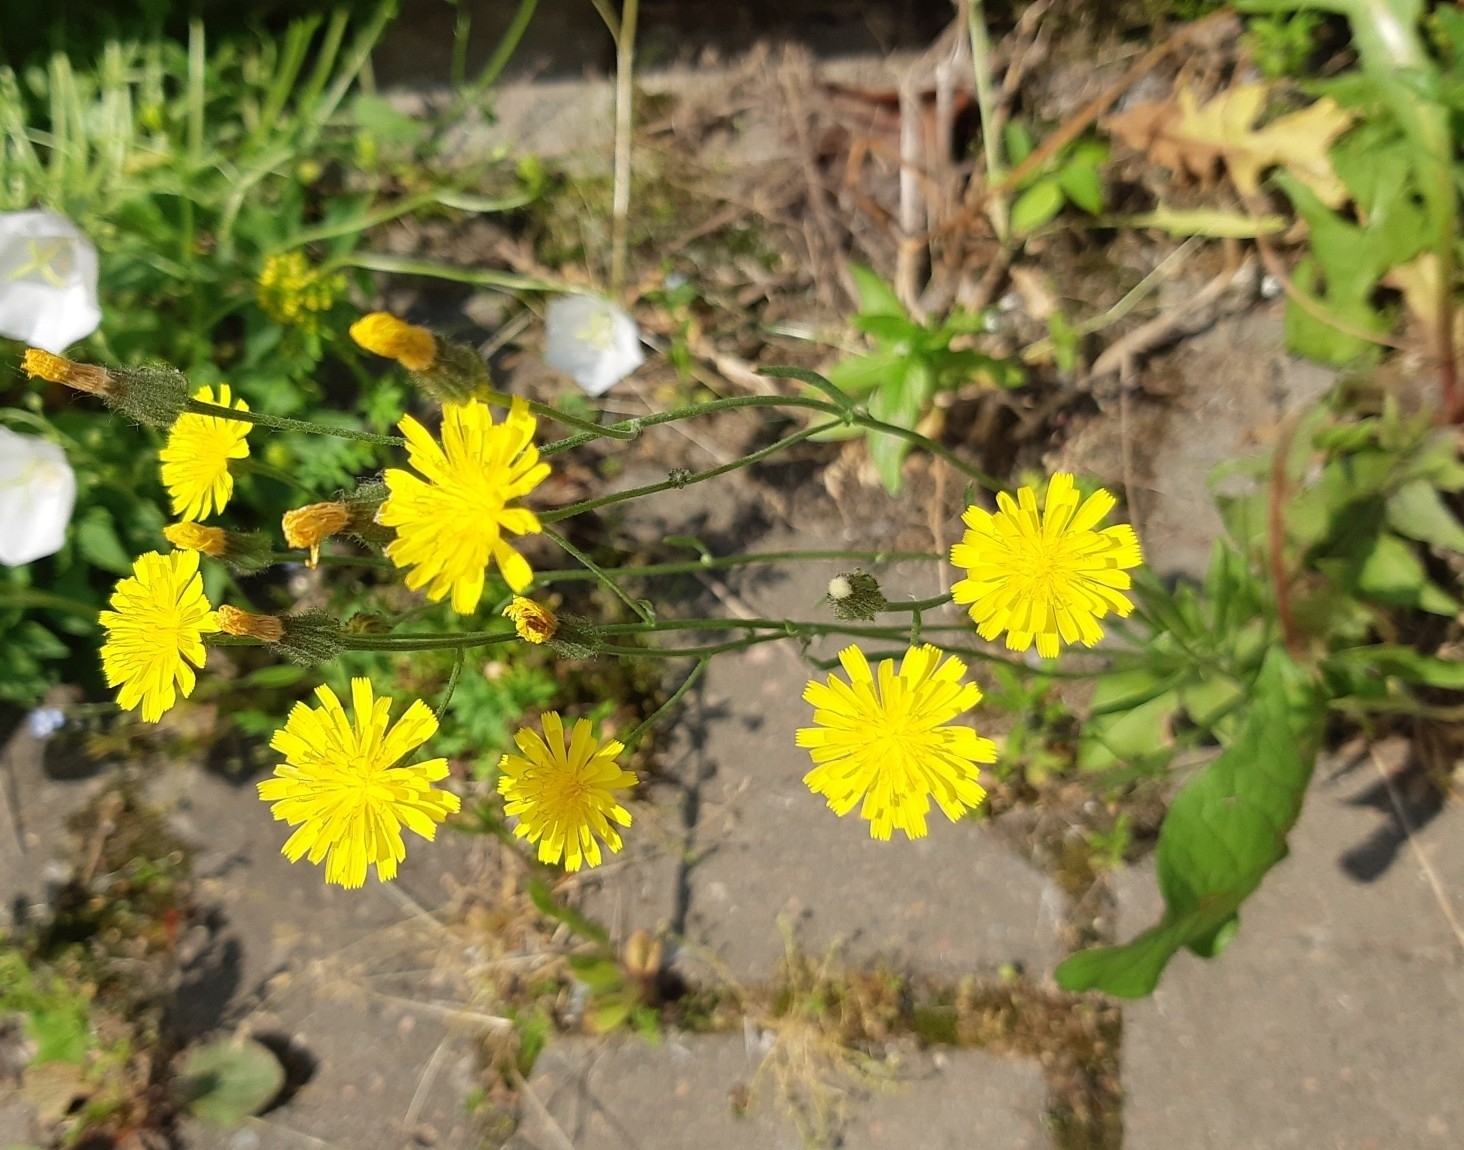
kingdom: Plantae
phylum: Tracheophyta
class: Magnoliopsida
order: Asterales
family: Asteraceae
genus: Crepis
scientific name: Crepis tectorum
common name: Narrow-leaved hawk's-beard
